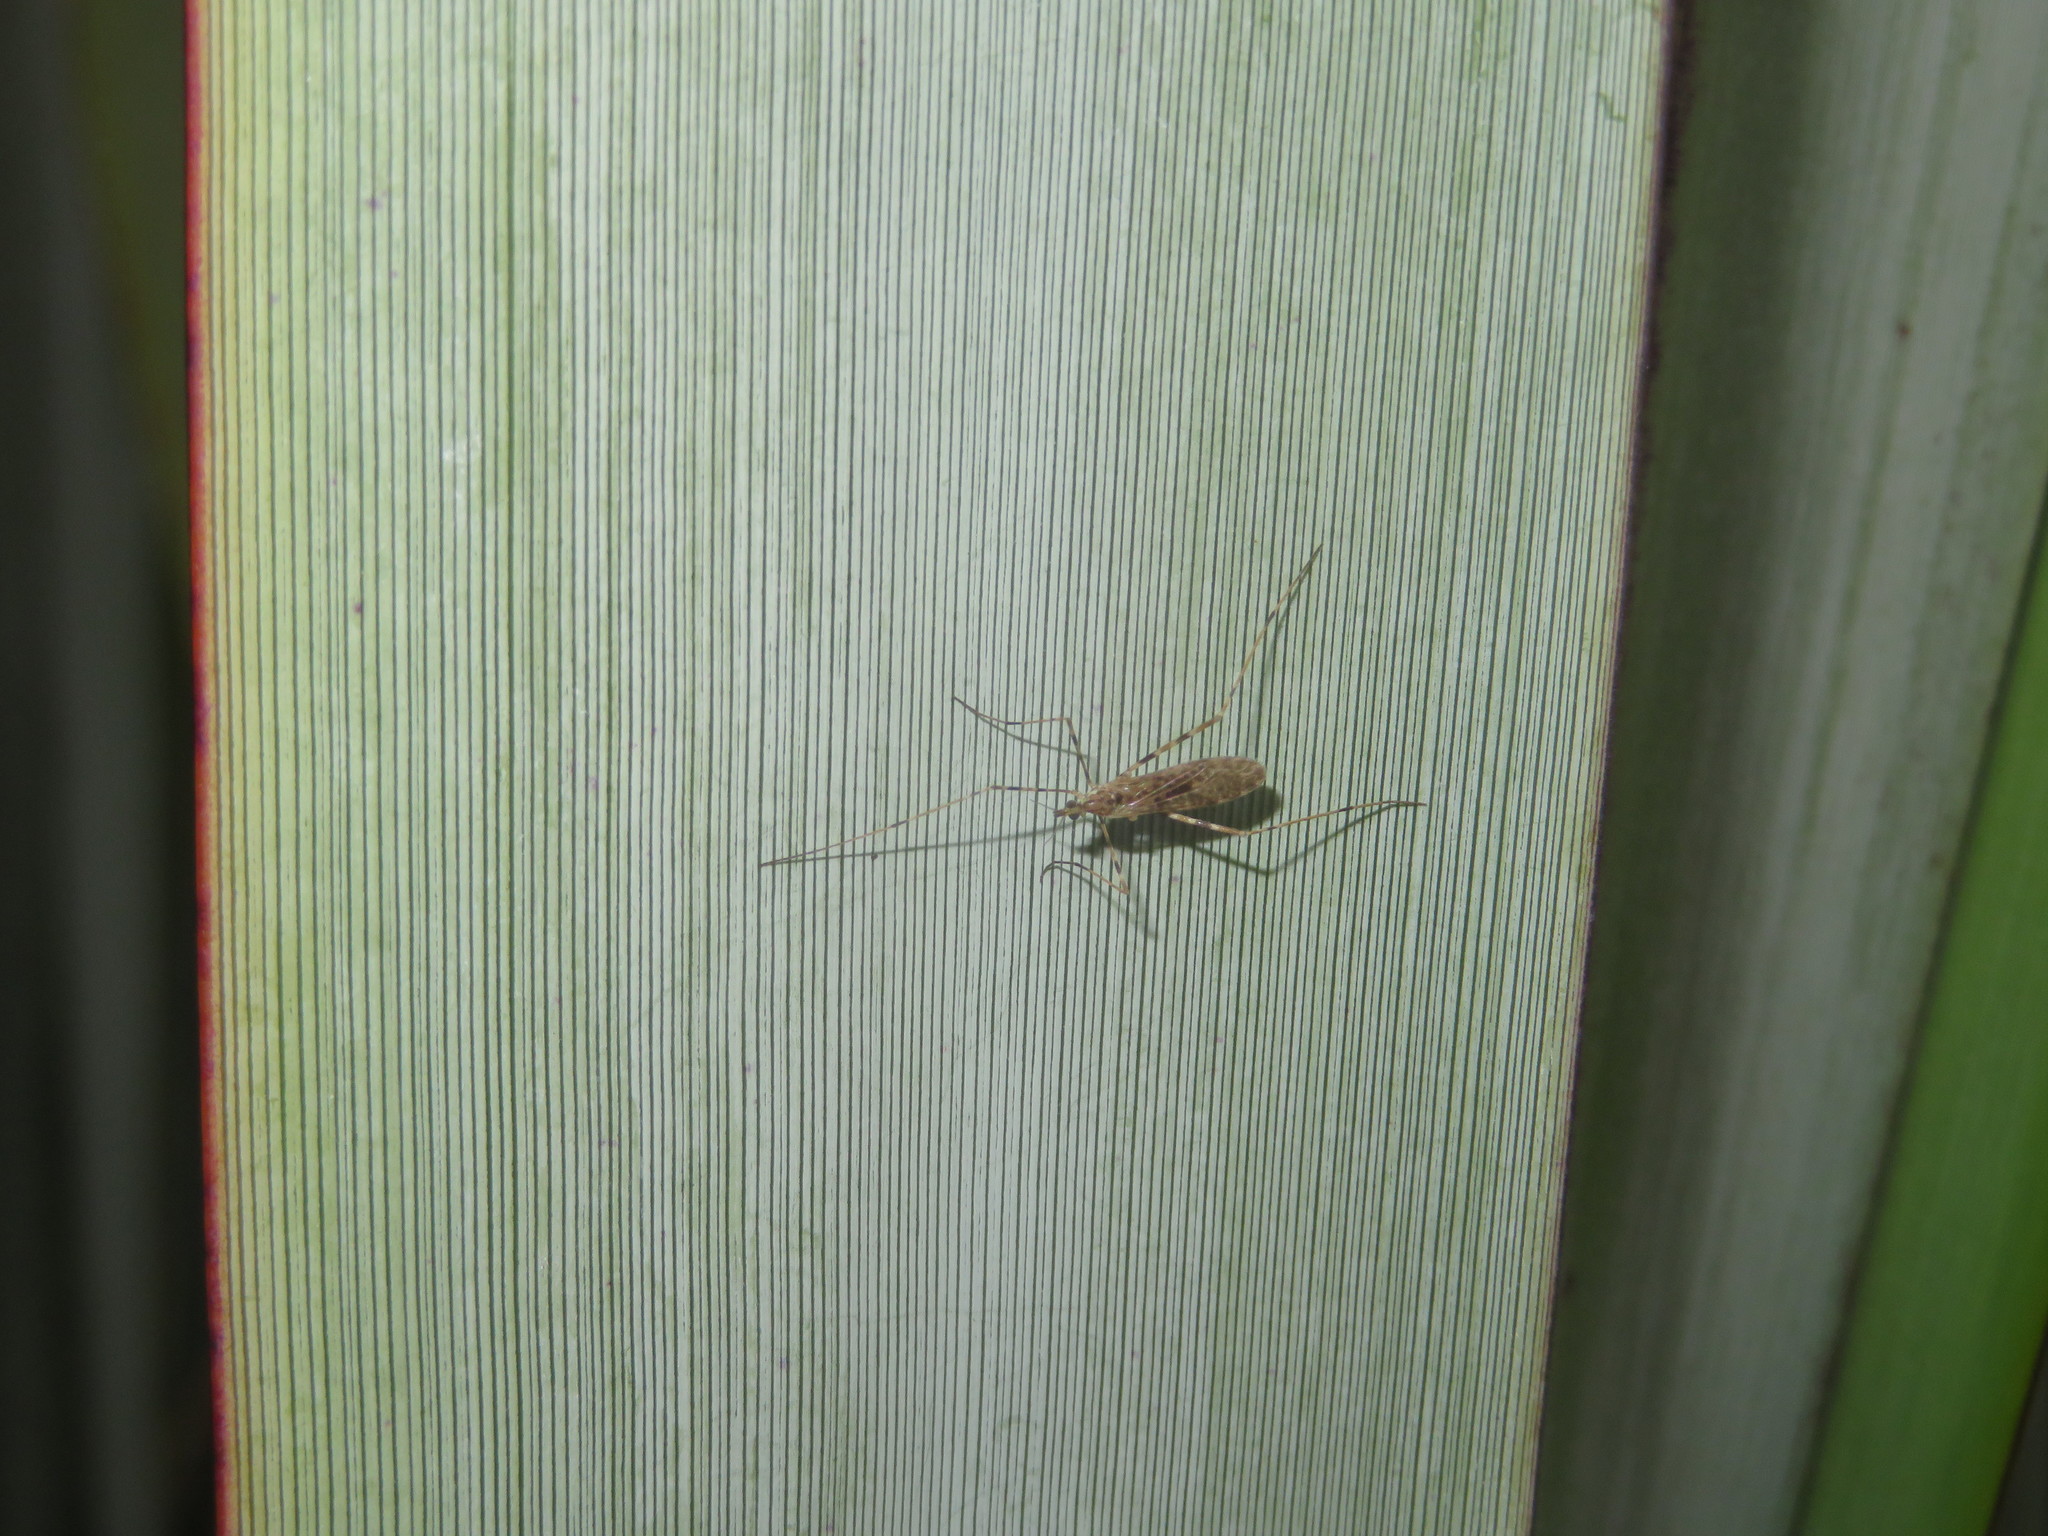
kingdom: Animalia
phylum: Arthropoda
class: Insecta
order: Diptera
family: Limoniidae
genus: Amphineurus
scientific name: Amphineurus hudsoni
